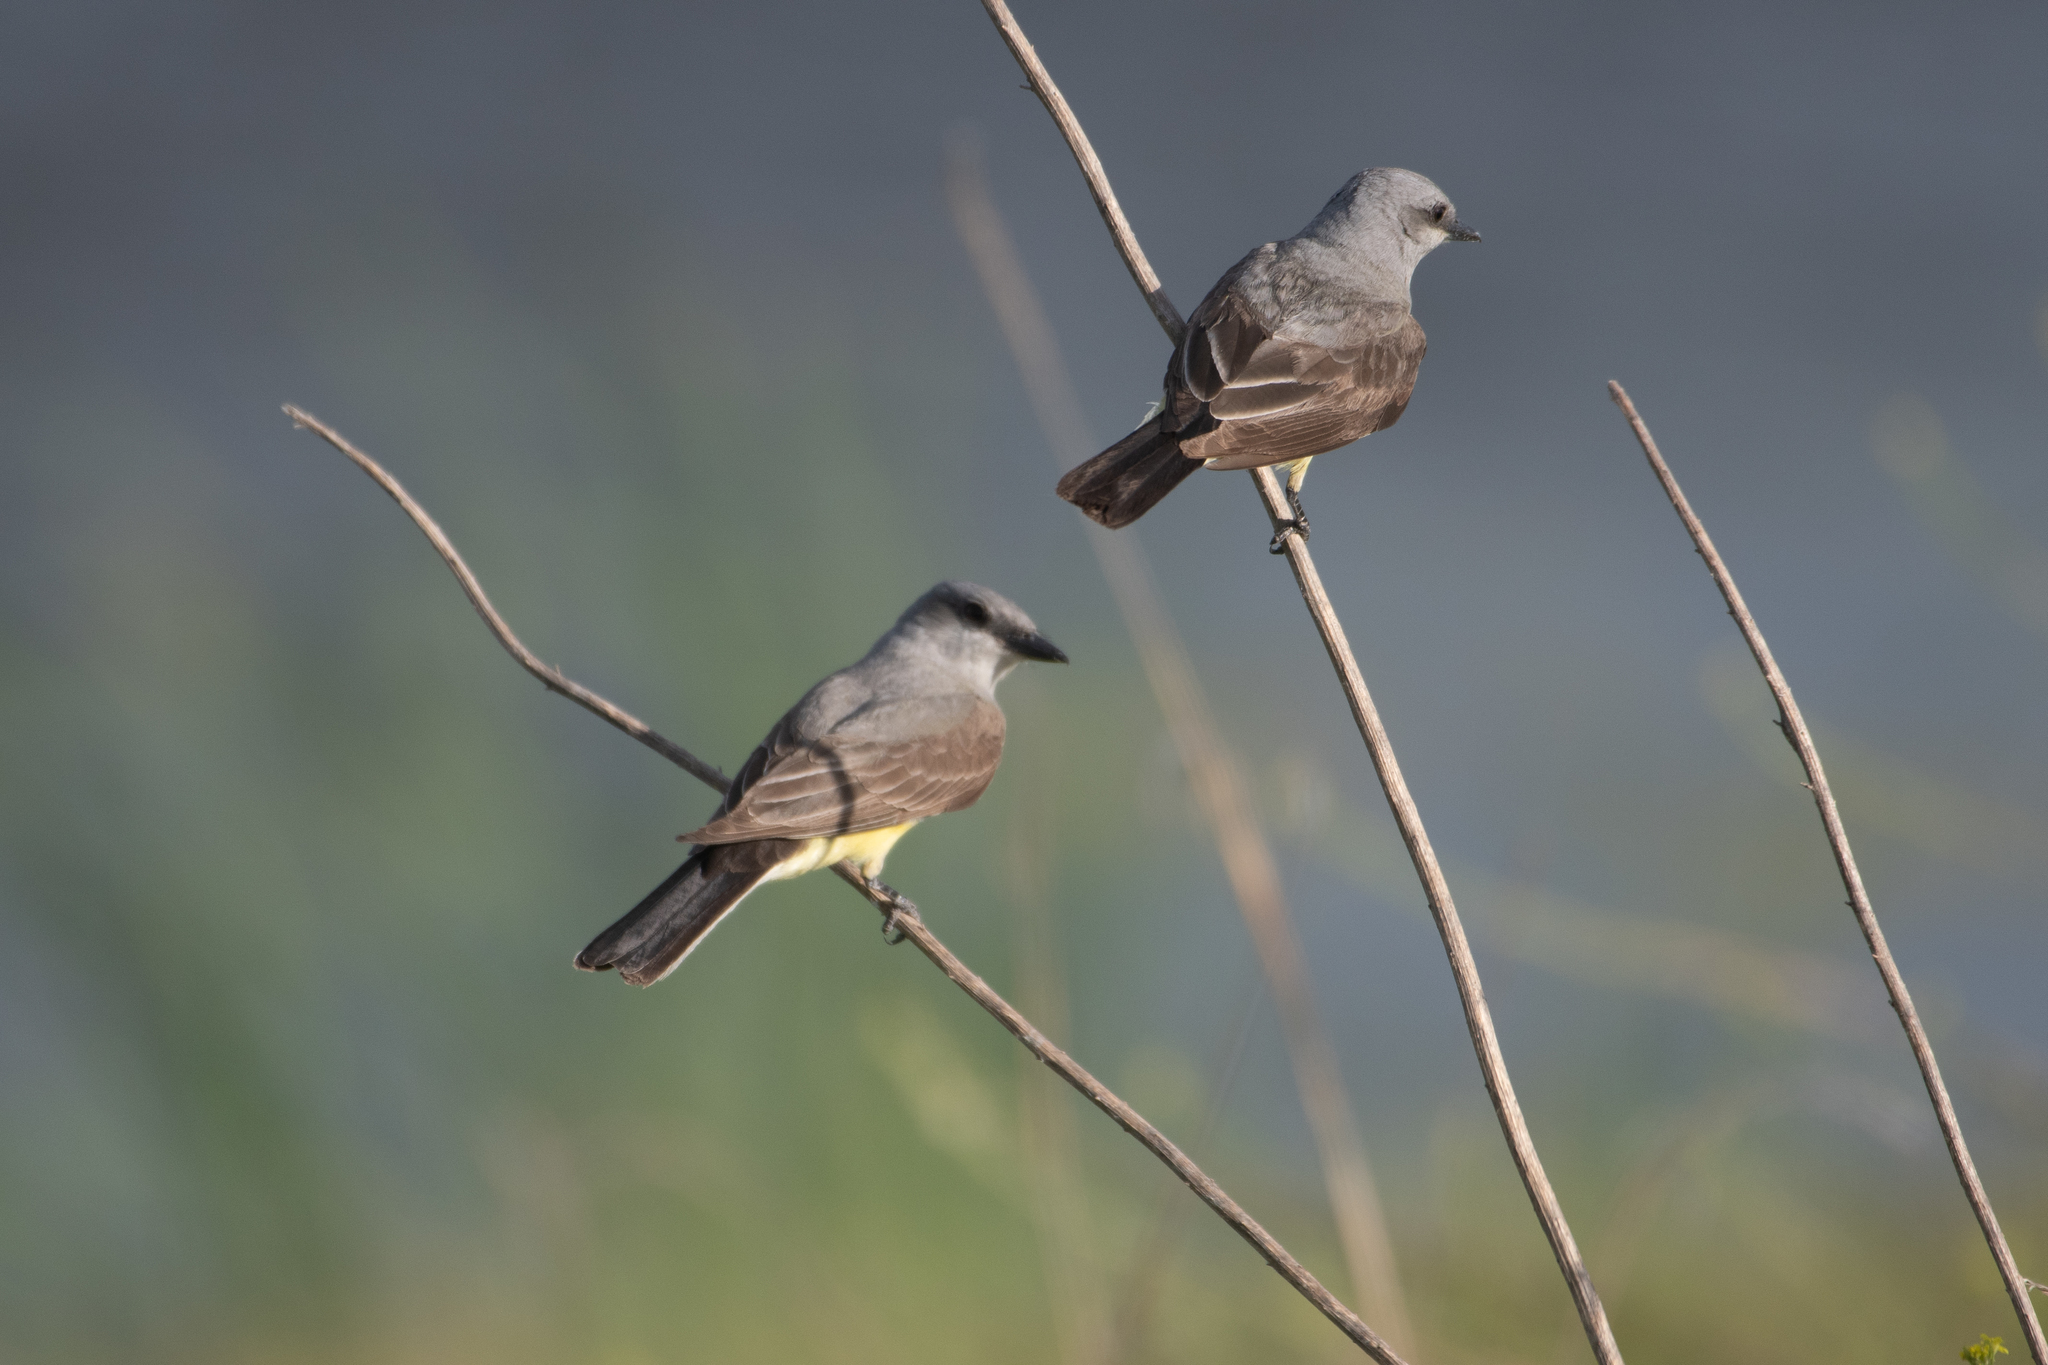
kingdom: Animalia
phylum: Chordata
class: Aves
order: Passeriformes
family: Tyrannidae
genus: Tyrannus
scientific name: Tyrannus verticalis
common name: Western kingbird
